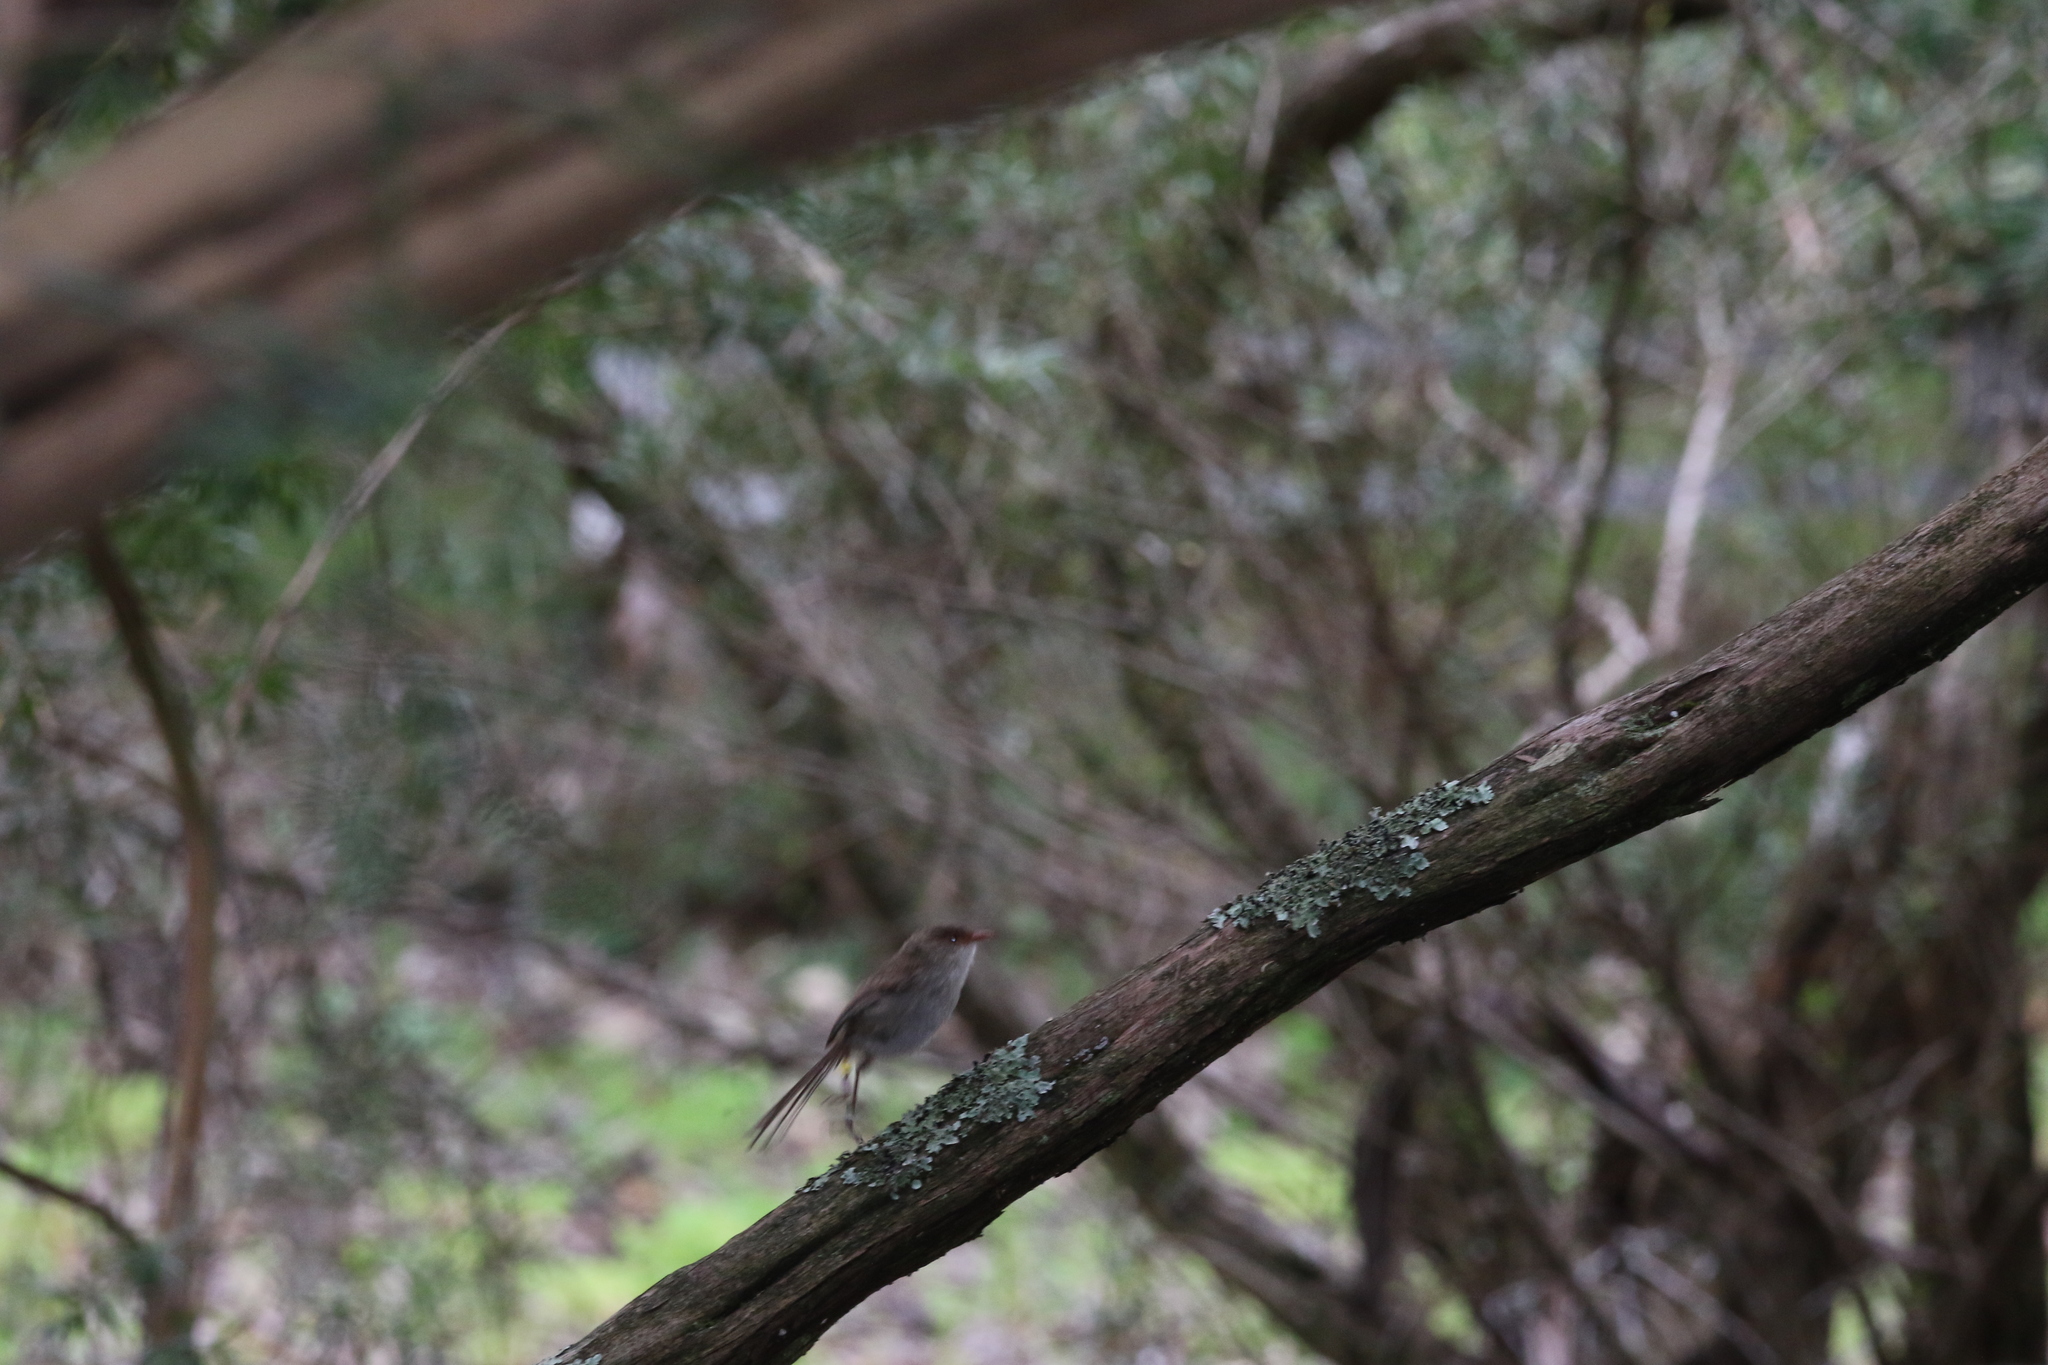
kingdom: Animalia
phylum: Chordata
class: Aves
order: Passeriformes
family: Maluridae
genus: Malurus
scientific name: Malurus cyaneus
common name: Superb fairywren
